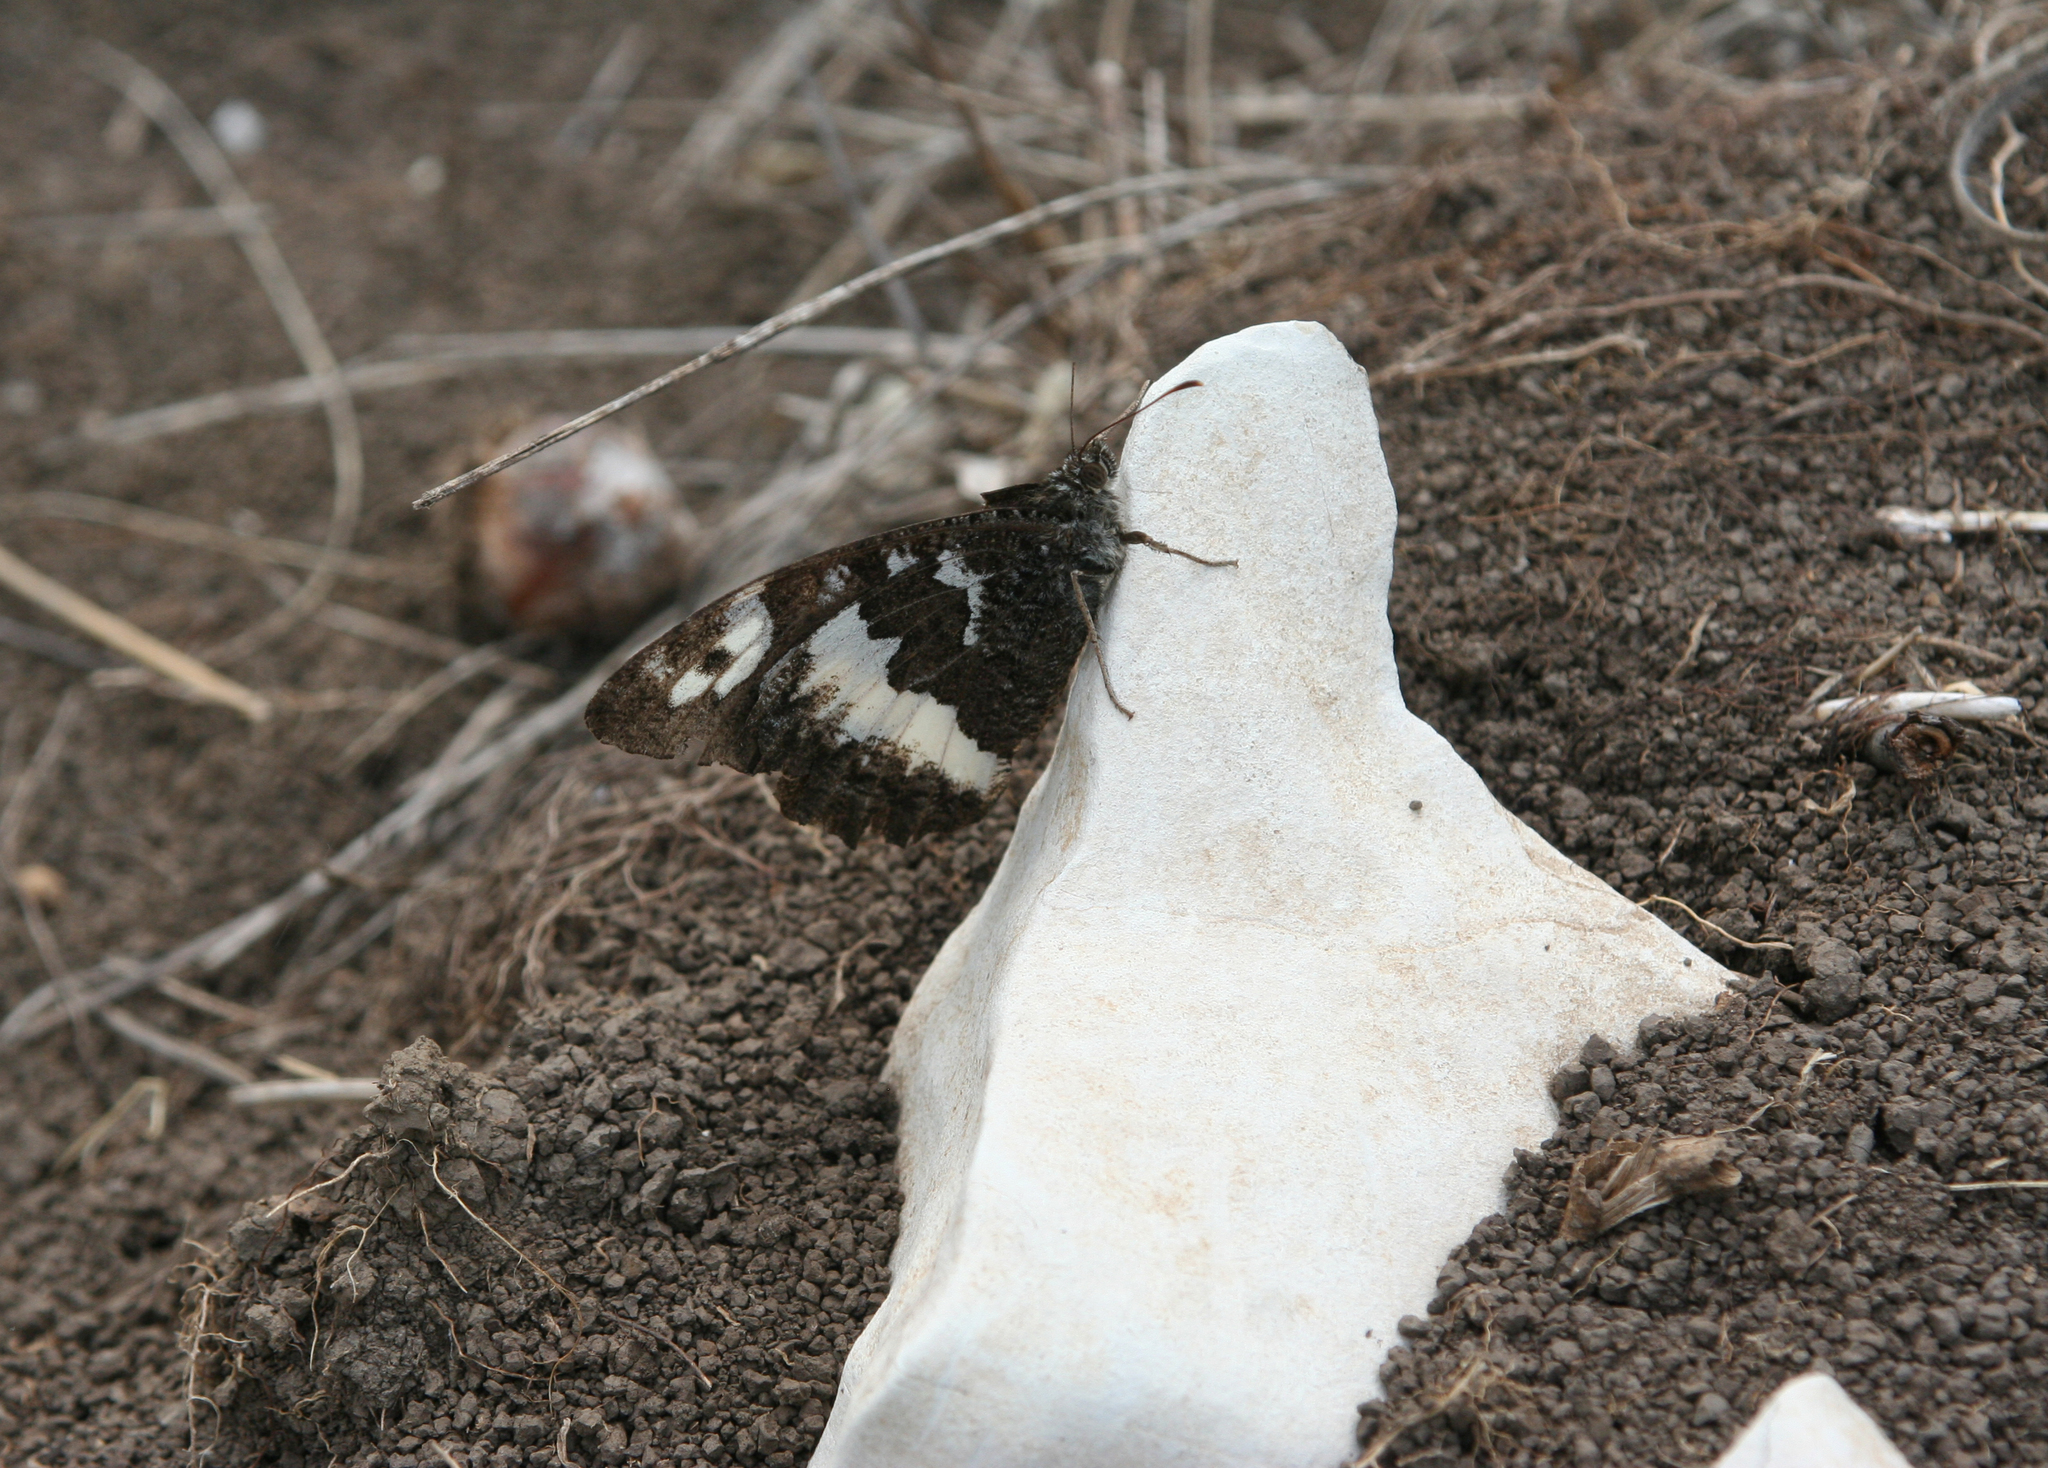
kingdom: Animalia
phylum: Arthropoda
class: Insecta
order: Lepidoptera
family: Lycaenidae
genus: Loweia
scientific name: Loweia tityrus
